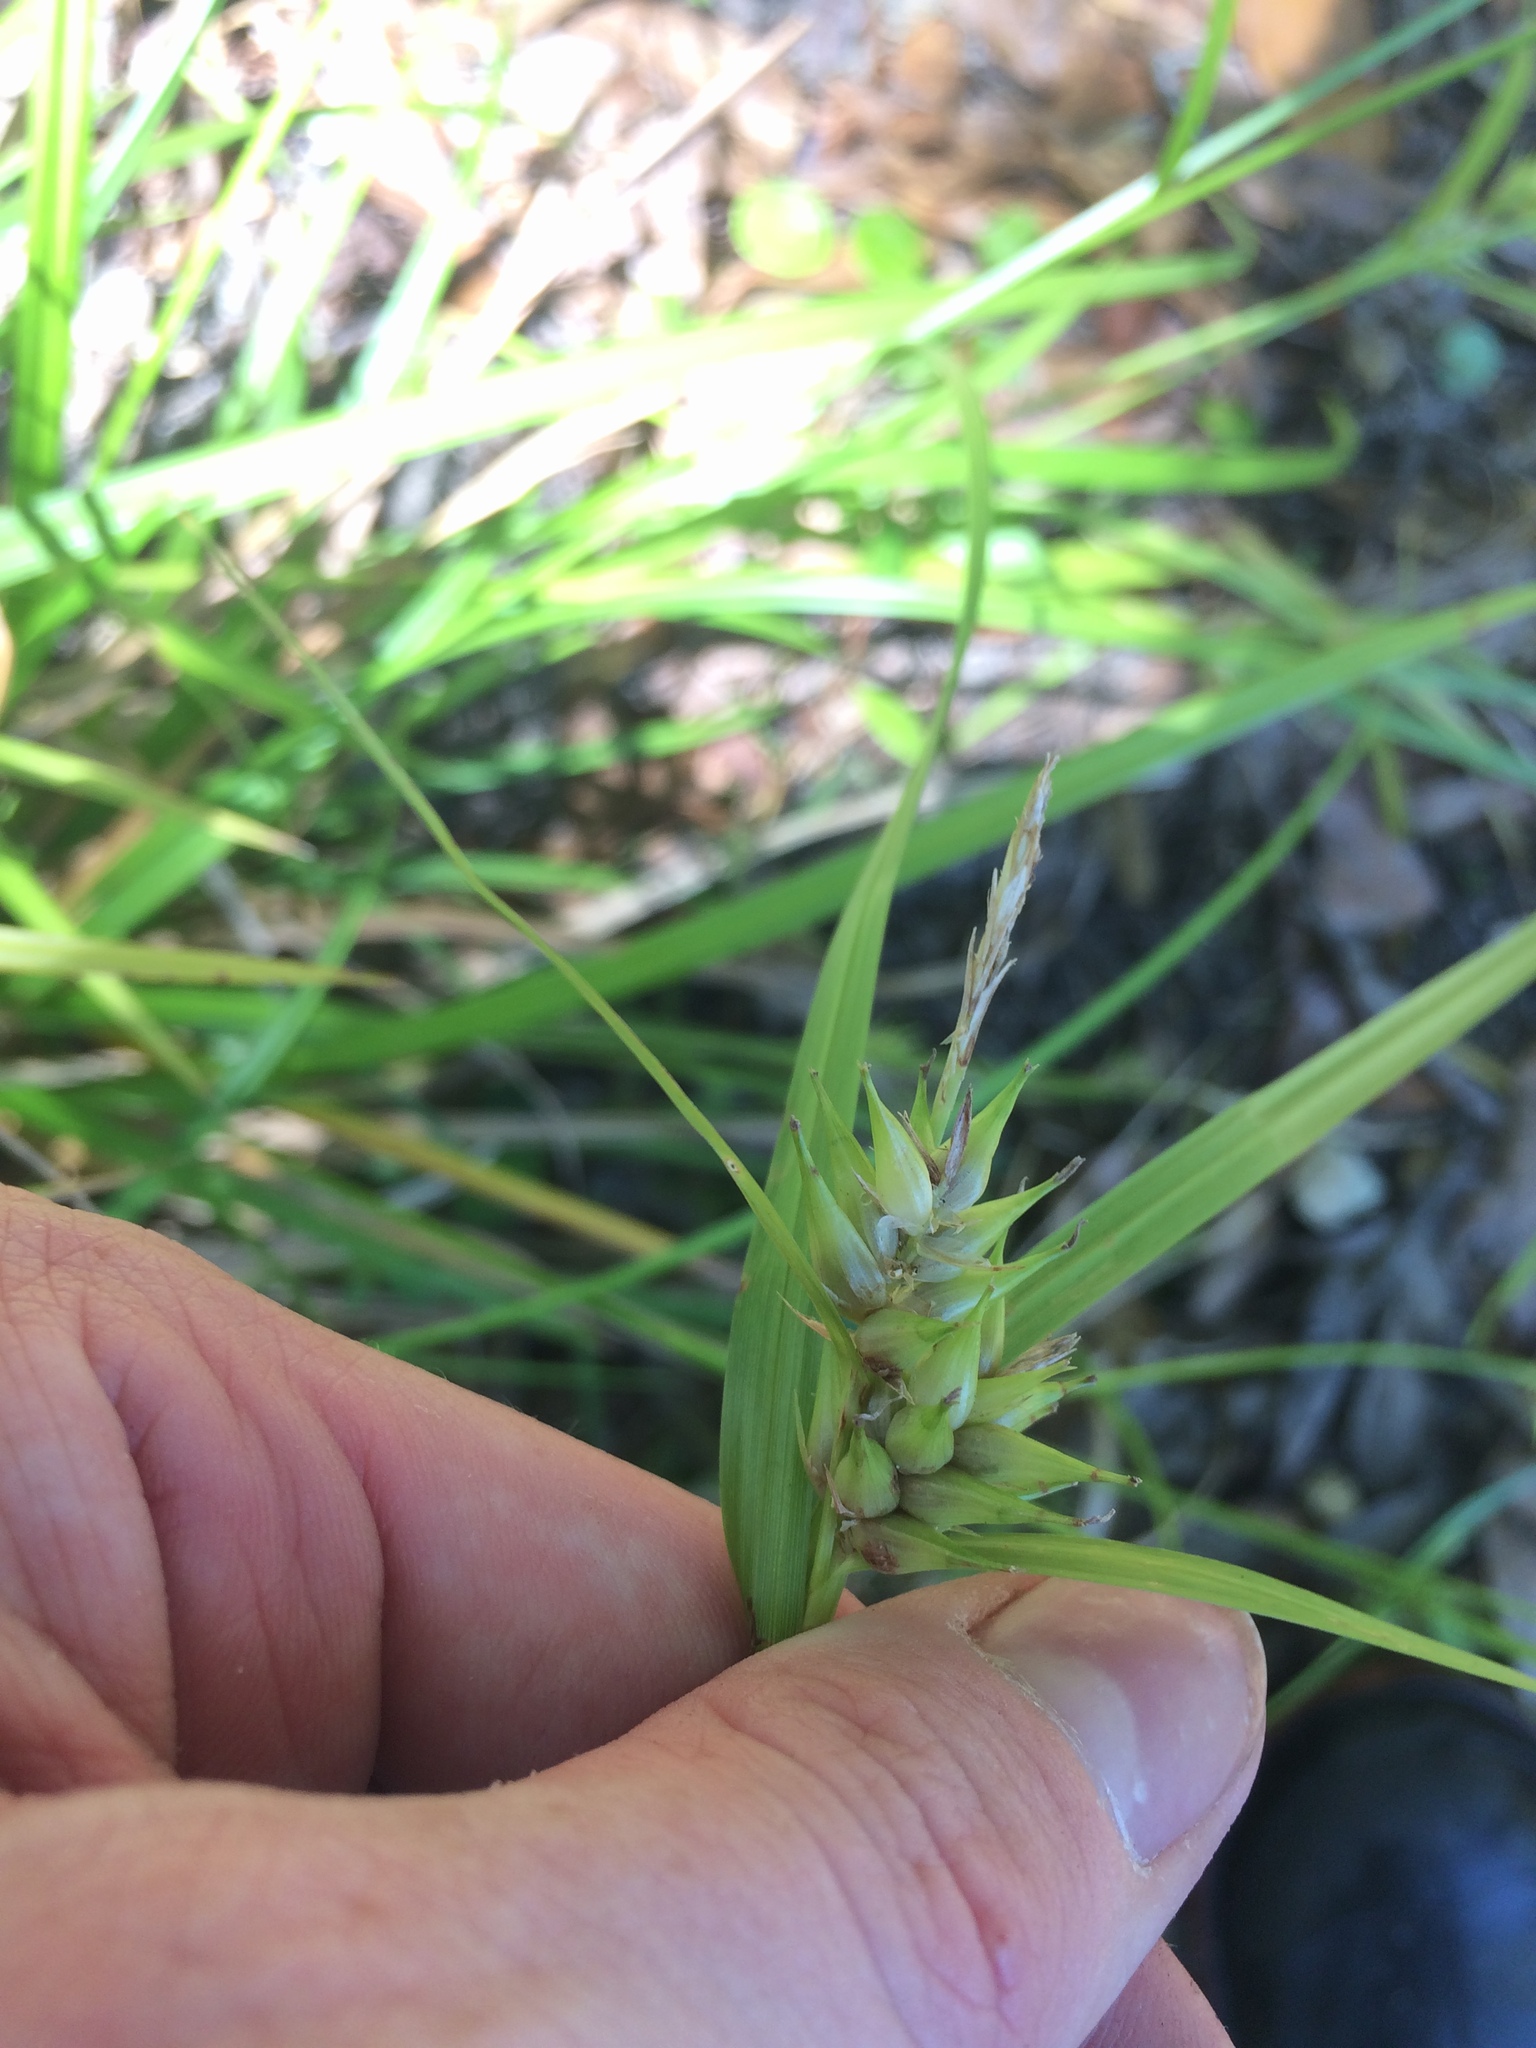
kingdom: Plantae
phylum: Tracheophyta
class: Liliopsida
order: Poales
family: Cyperaceae
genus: Carex
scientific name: Carex intumescens
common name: Greater bladder sedge
